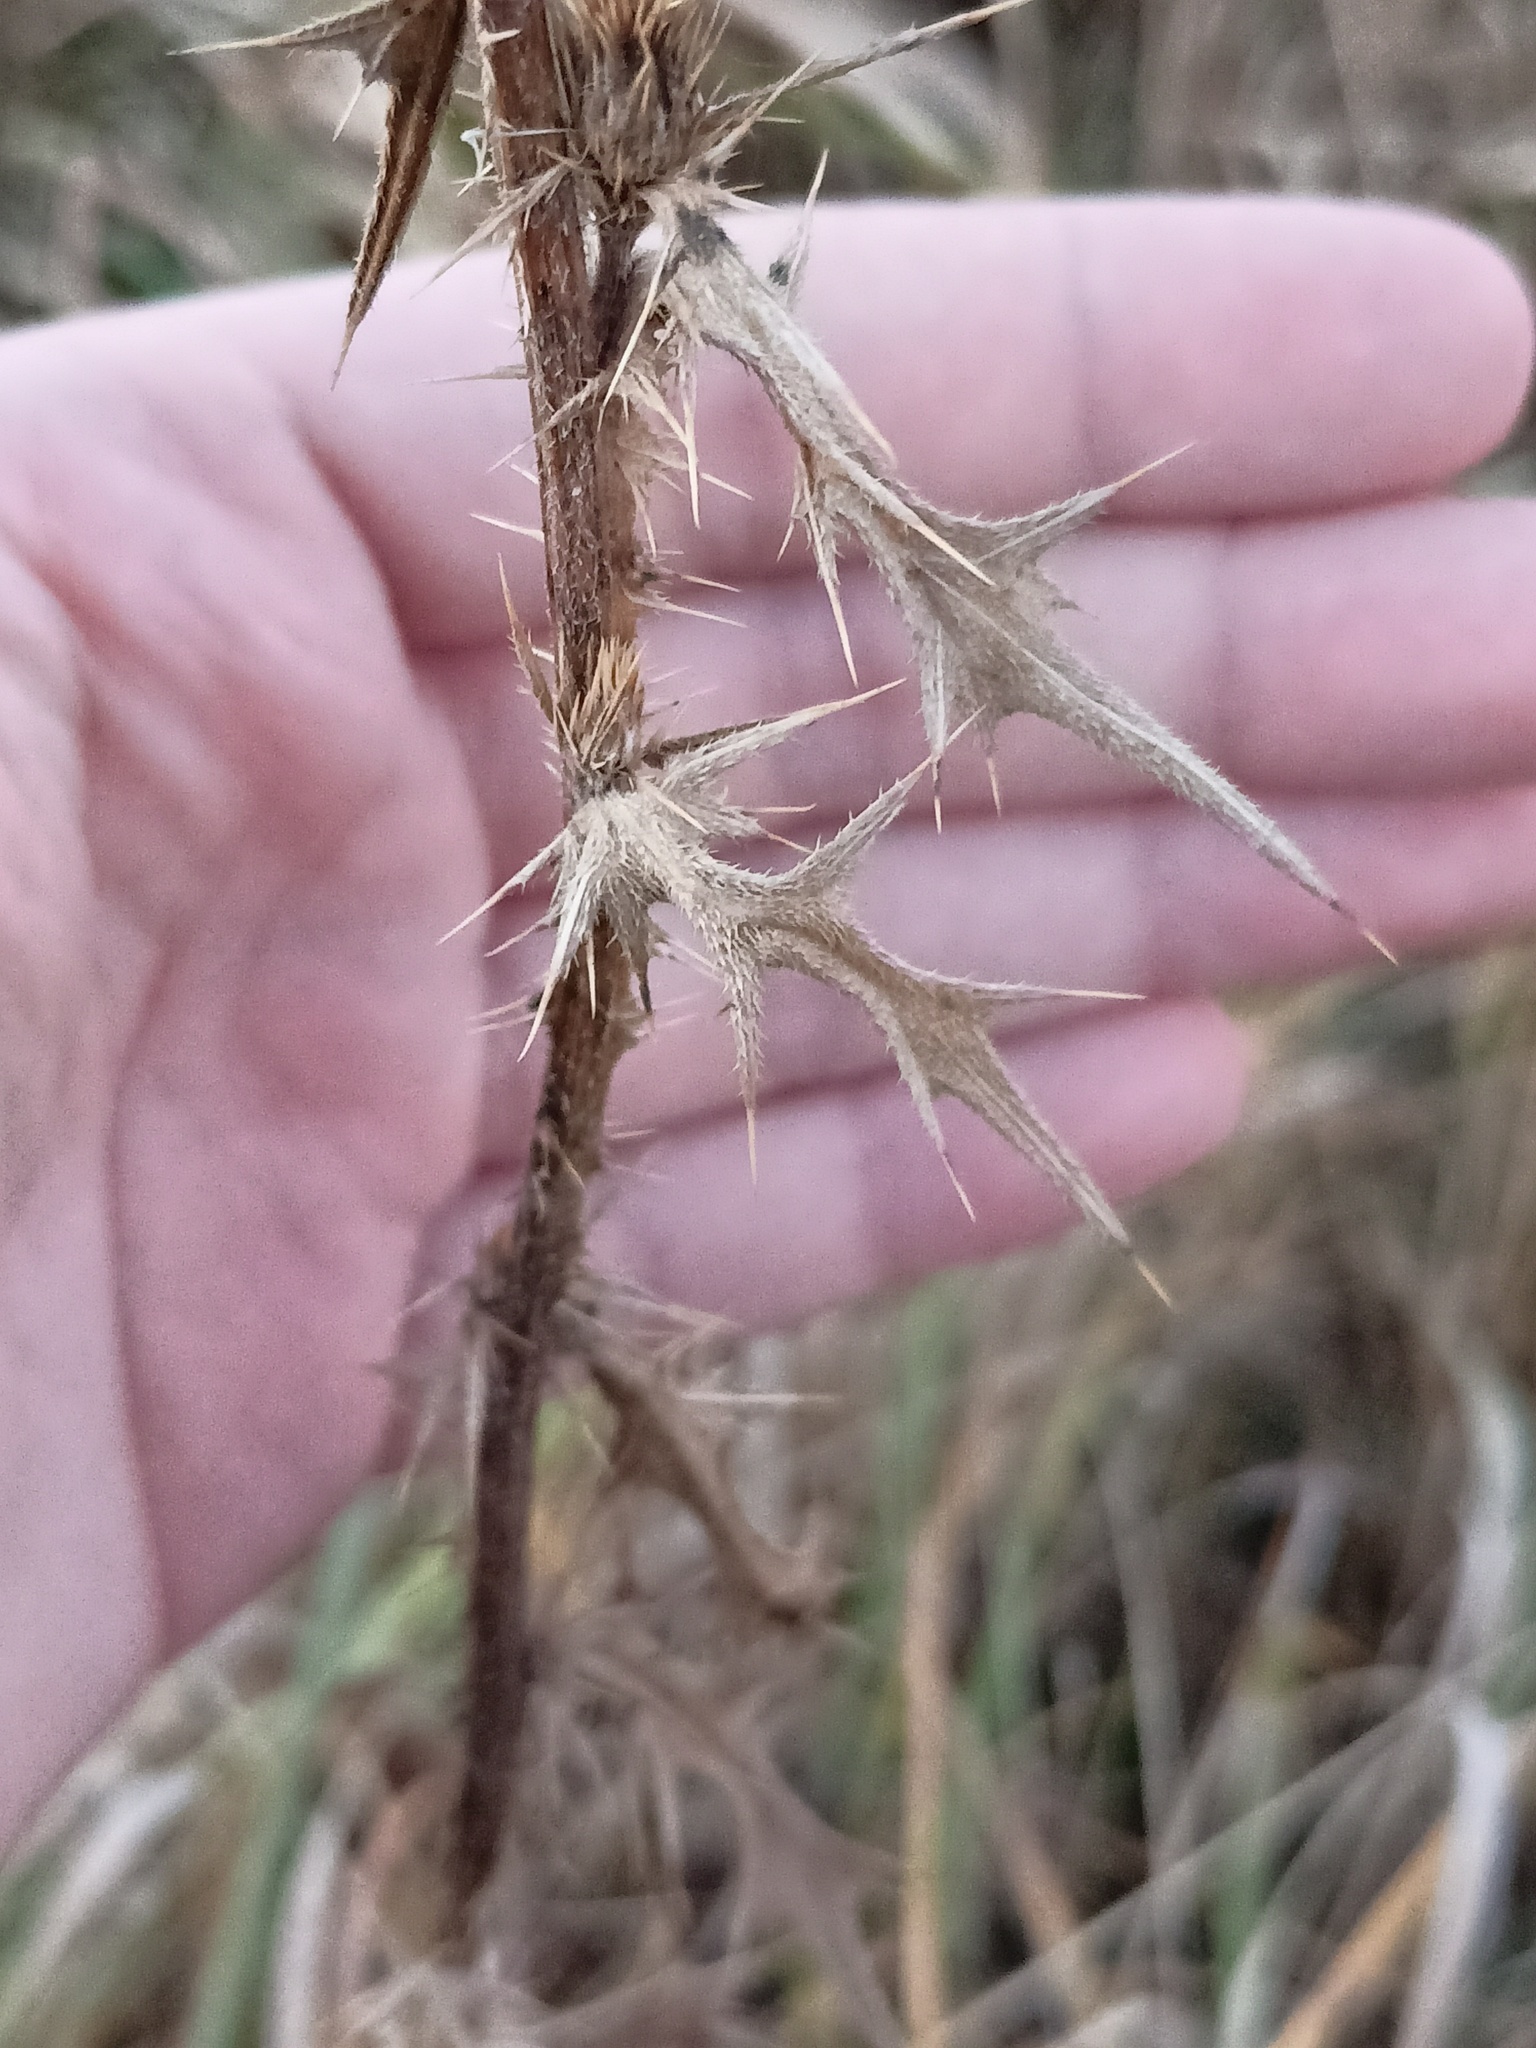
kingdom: Plantae
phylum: Tracheophyta
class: Magnoliopsida
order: Asterales
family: Asteraceae
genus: Cirsium
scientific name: Cirsium vulgare
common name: Bull thistle
